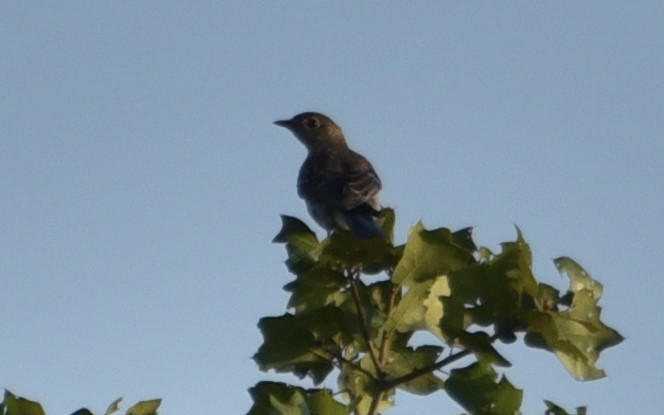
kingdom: Animalia
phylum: Chordata
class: Aves
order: Passeriformes
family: Turdidae
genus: Sialia
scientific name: Sialia sialis
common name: Eastern bluebird
